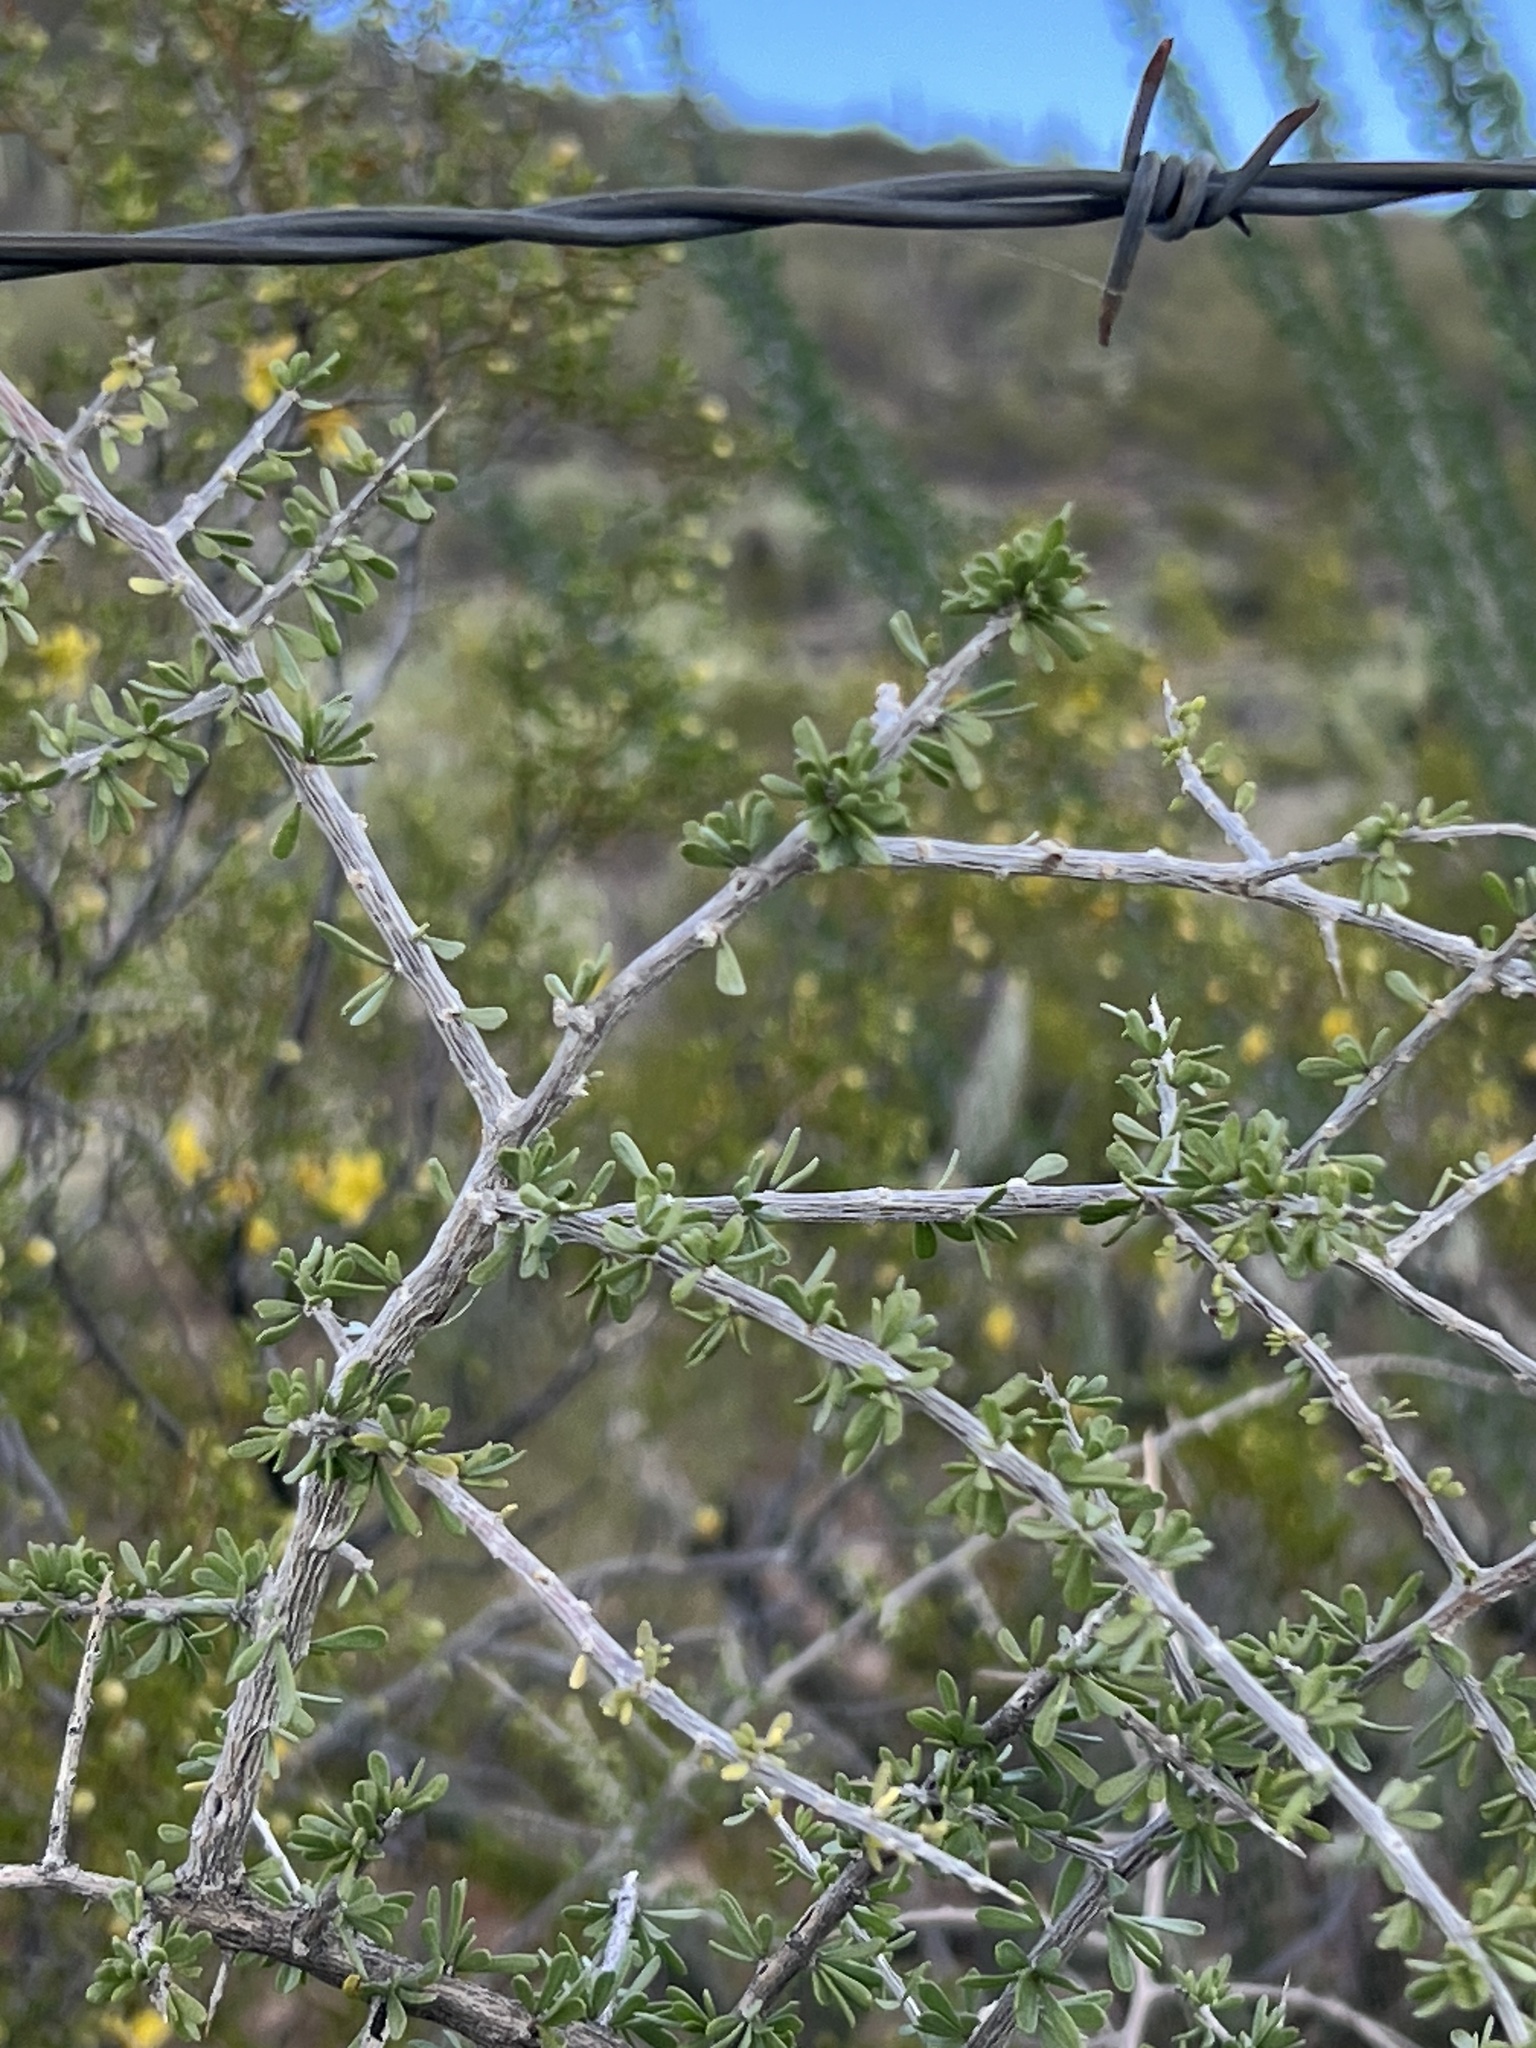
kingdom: Plantae
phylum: Tracheophyta
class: Magnoliopsida
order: Solanales
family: Solanaceae
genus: Lycium
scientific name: Lycium andersonii
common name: Water-jacket
